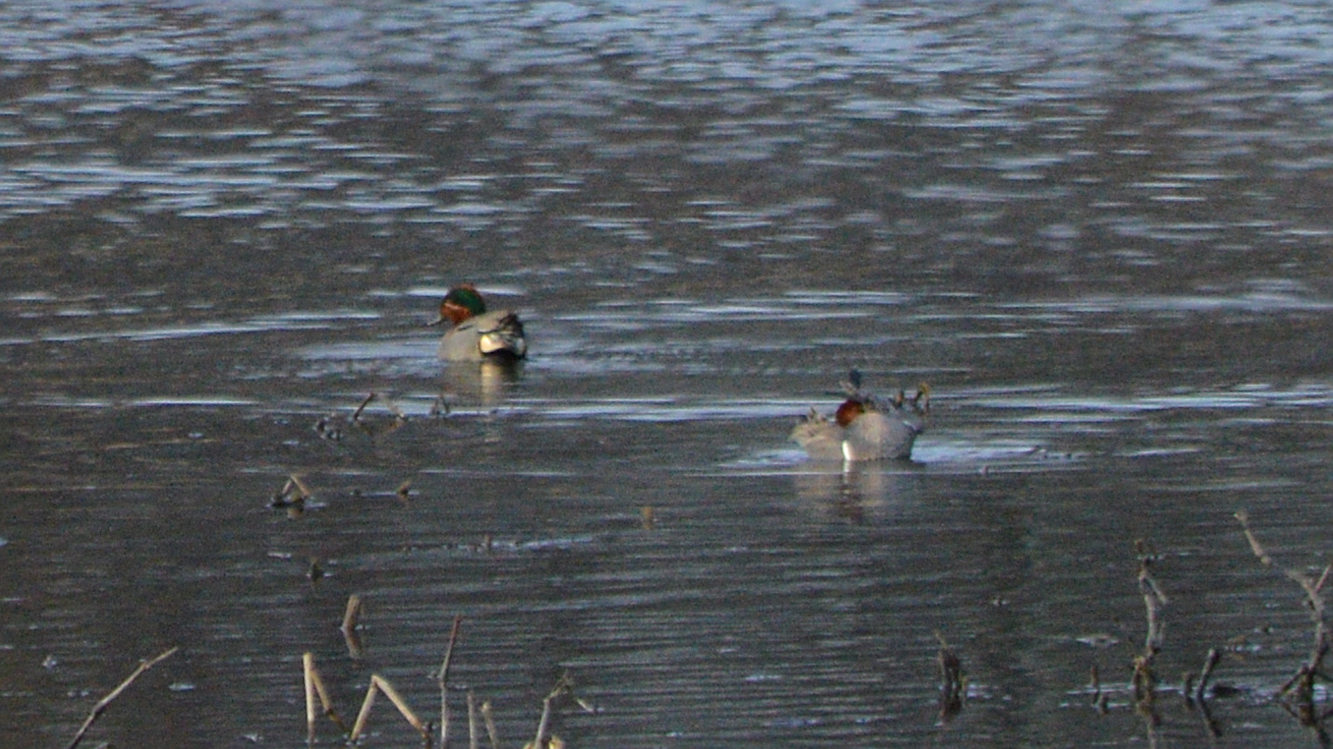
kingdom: Animalia
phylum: Chordata
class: Aves
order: Anseriformes
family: Anatidae
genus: Anas
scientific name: Anas crecca
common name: Eurasian teal
